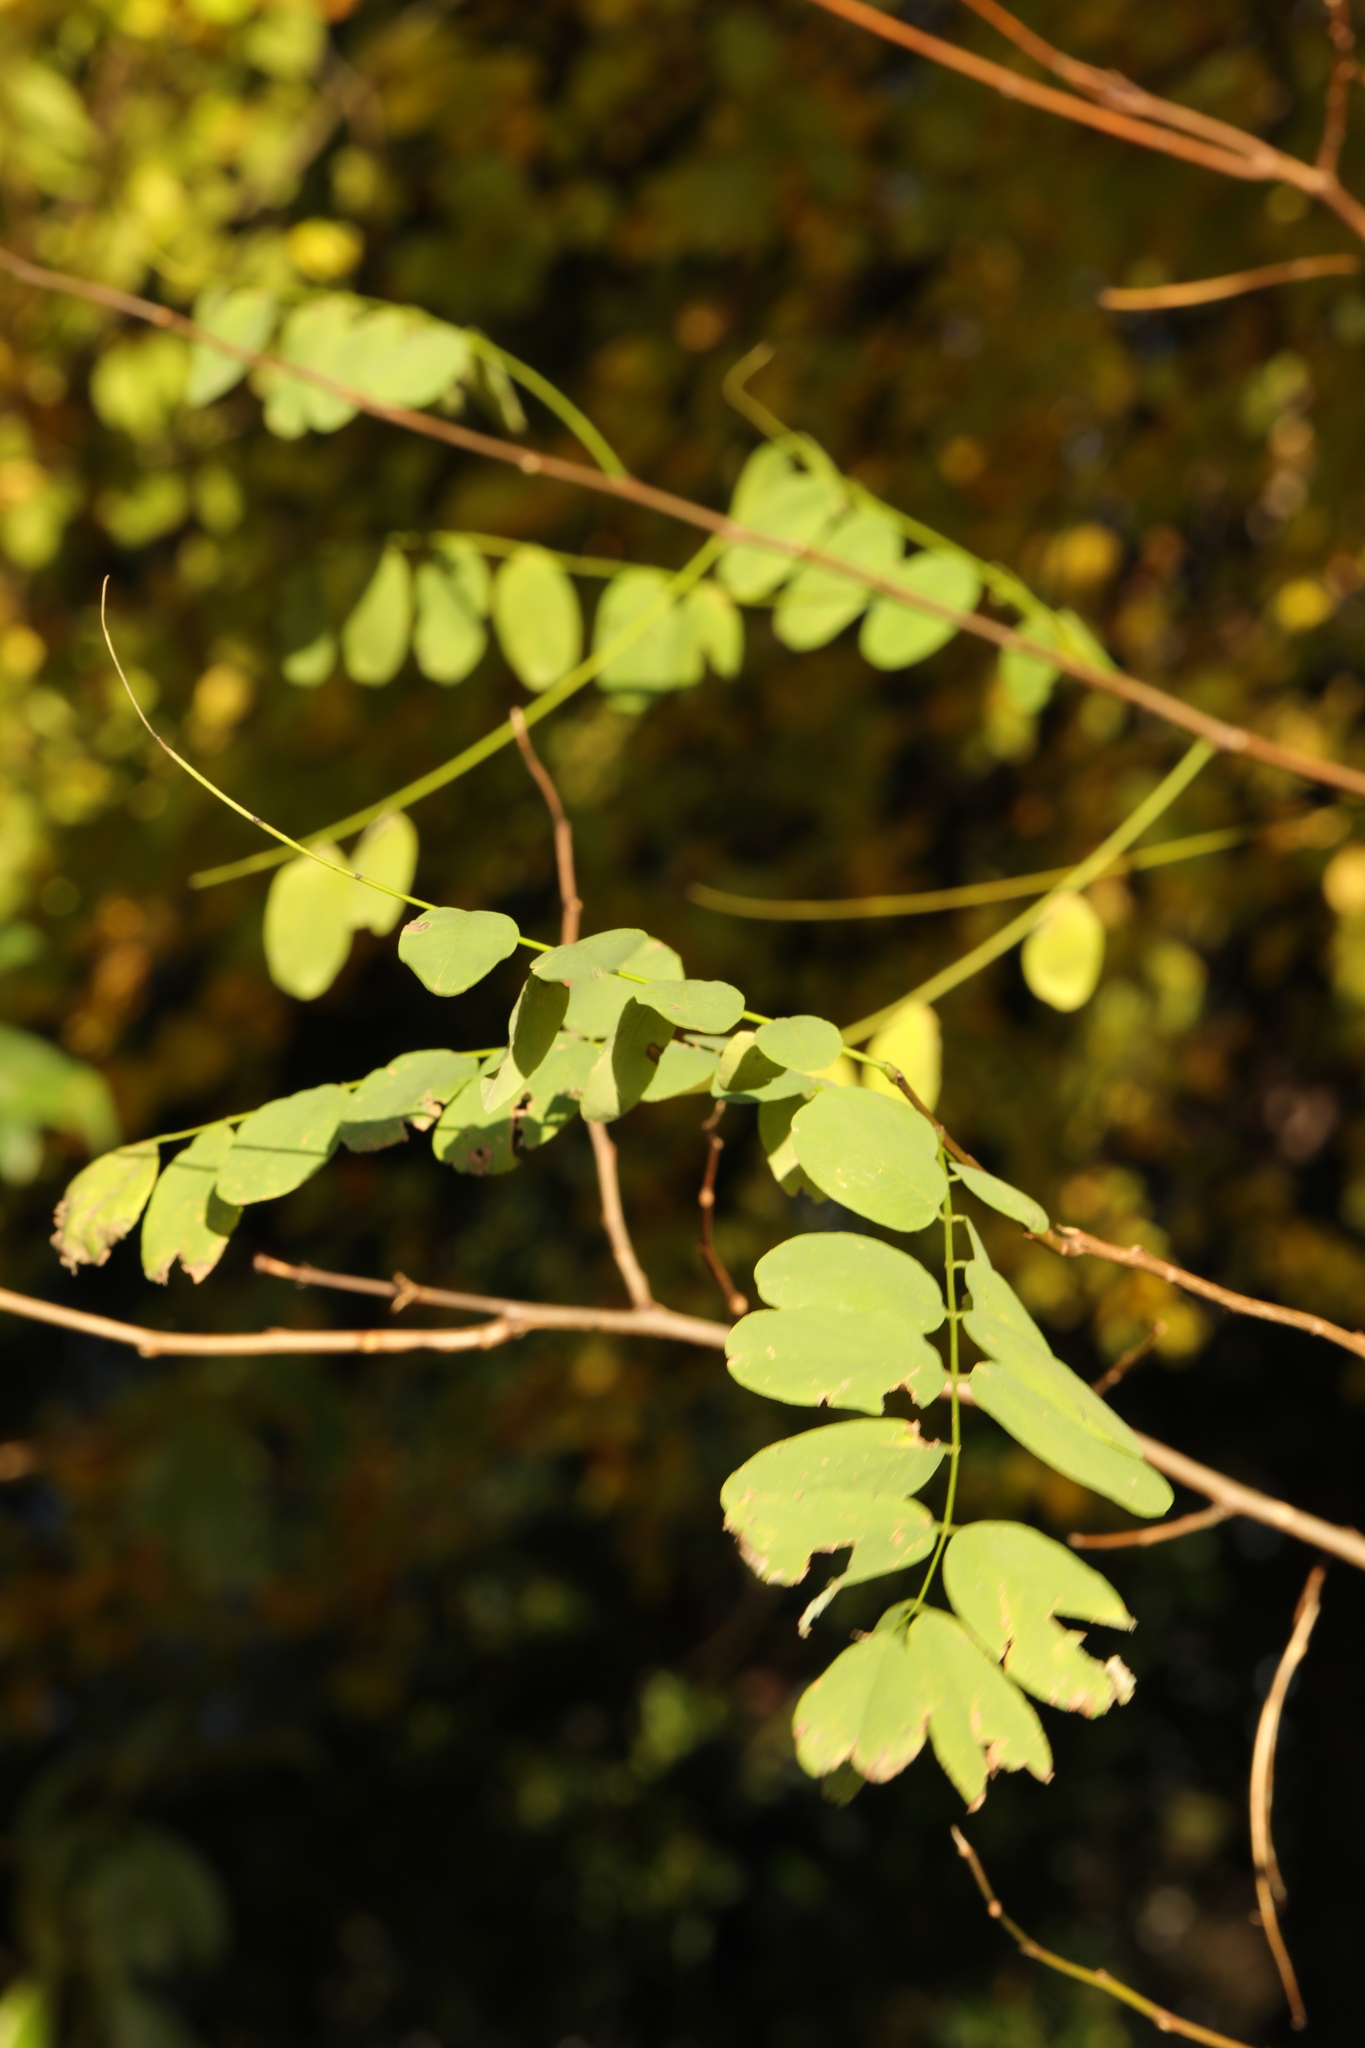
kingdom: Plantae
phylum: Tracheophyta
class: Magnoliopsida
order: Fabales
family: Fabaceae
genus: Robinia
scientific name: Robinia pseudoacacia
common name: Black locust
